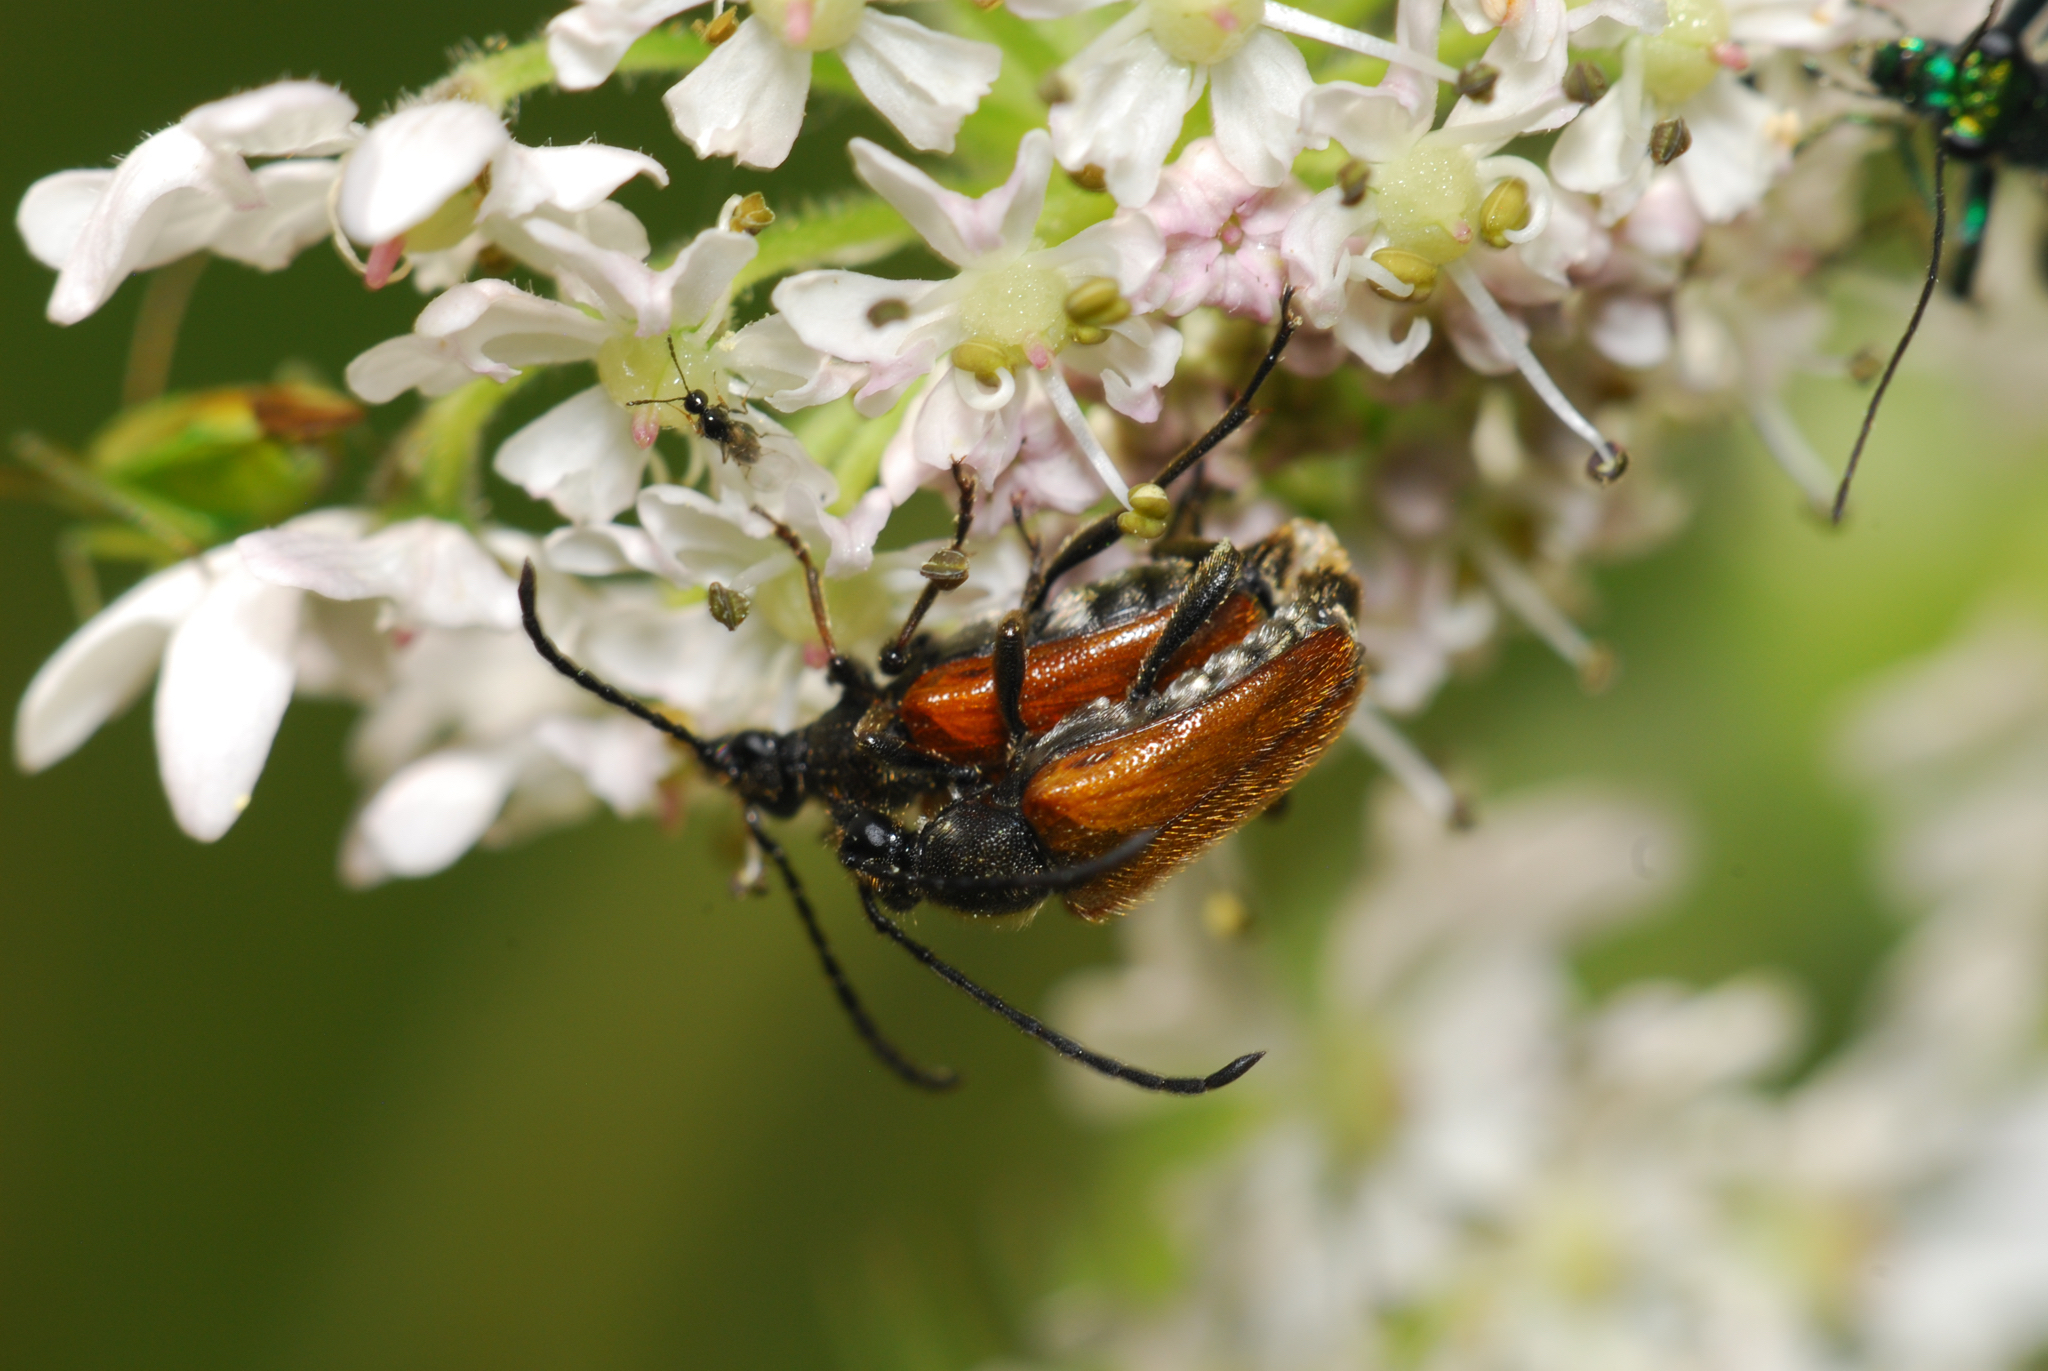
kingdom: Animalia
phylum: Arthropoda
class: Insecta
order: Coleoptera
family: Cerambycidae
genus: Pseudovadonia
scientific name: Pseudovadonia livida
